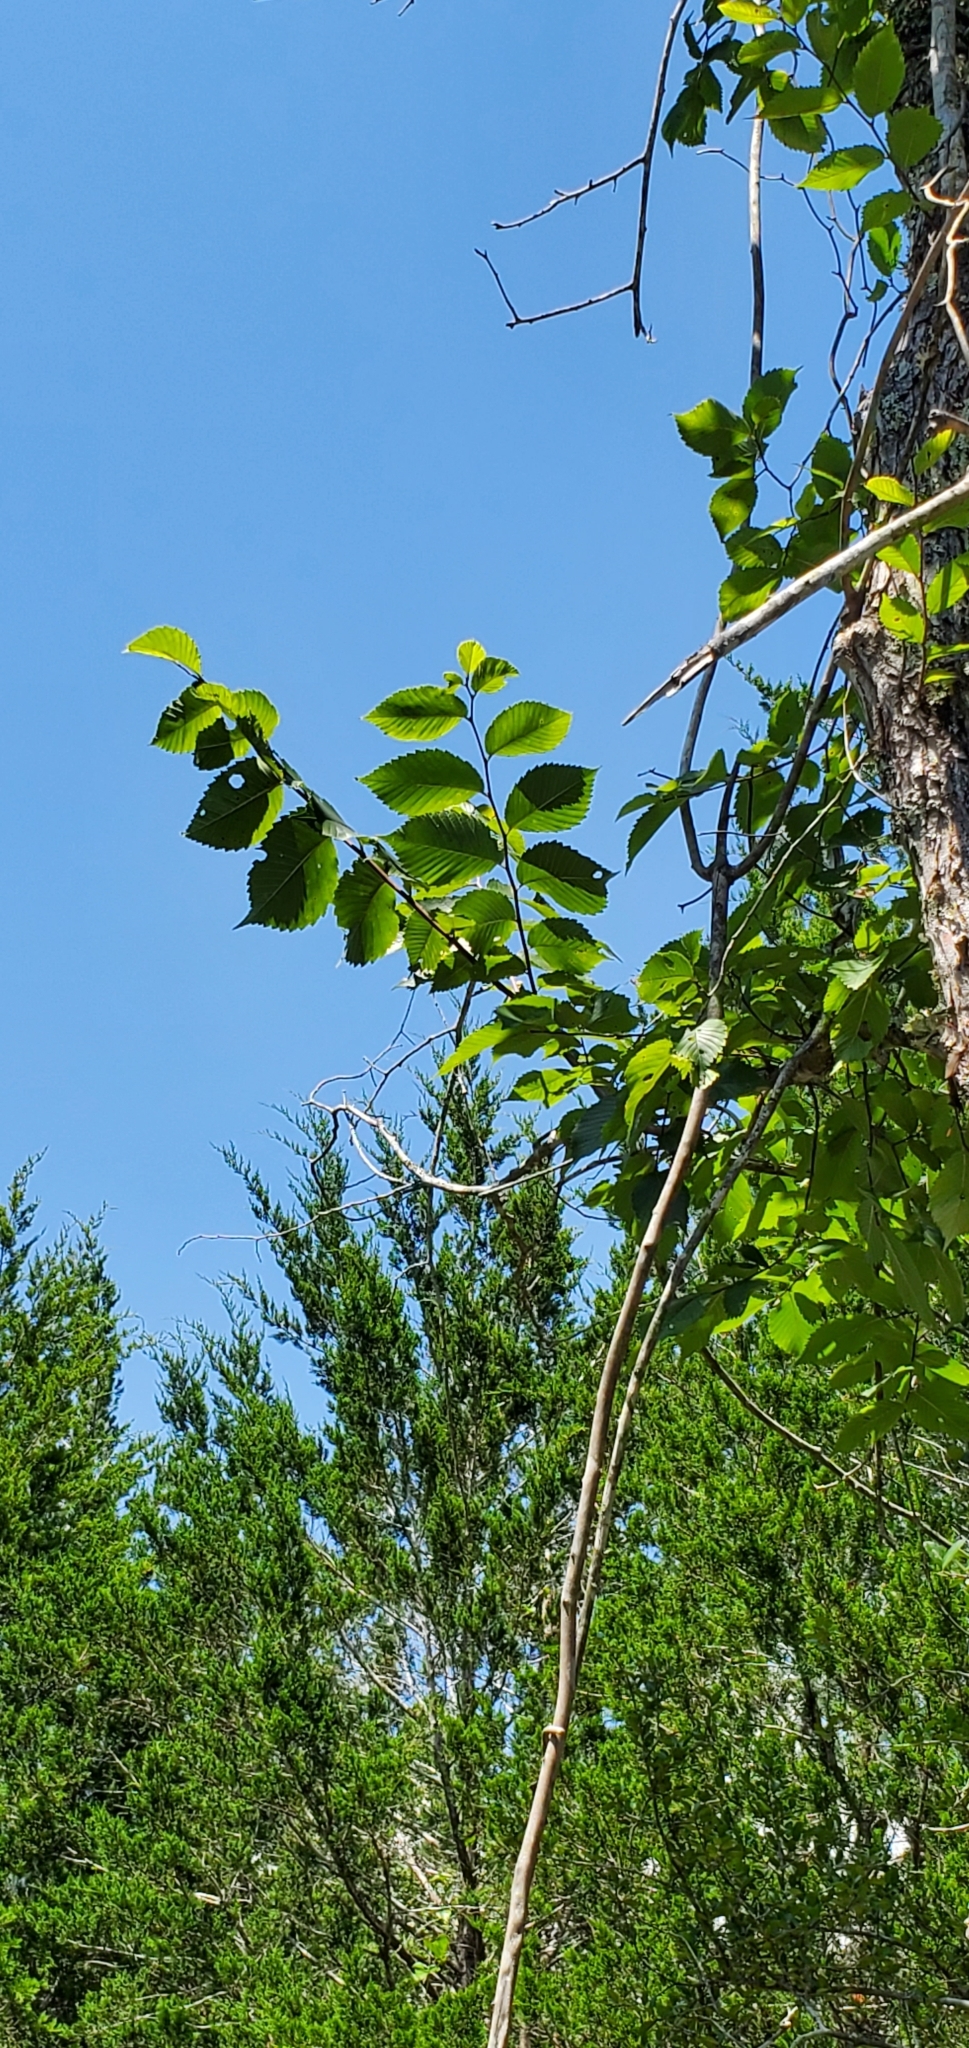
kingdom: Plantae
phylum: Tracheophyta
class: Magnoliopsida
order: Rosales
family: Ulmaceae
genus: Ulmus
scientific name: Ulmus americana
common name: American elm
